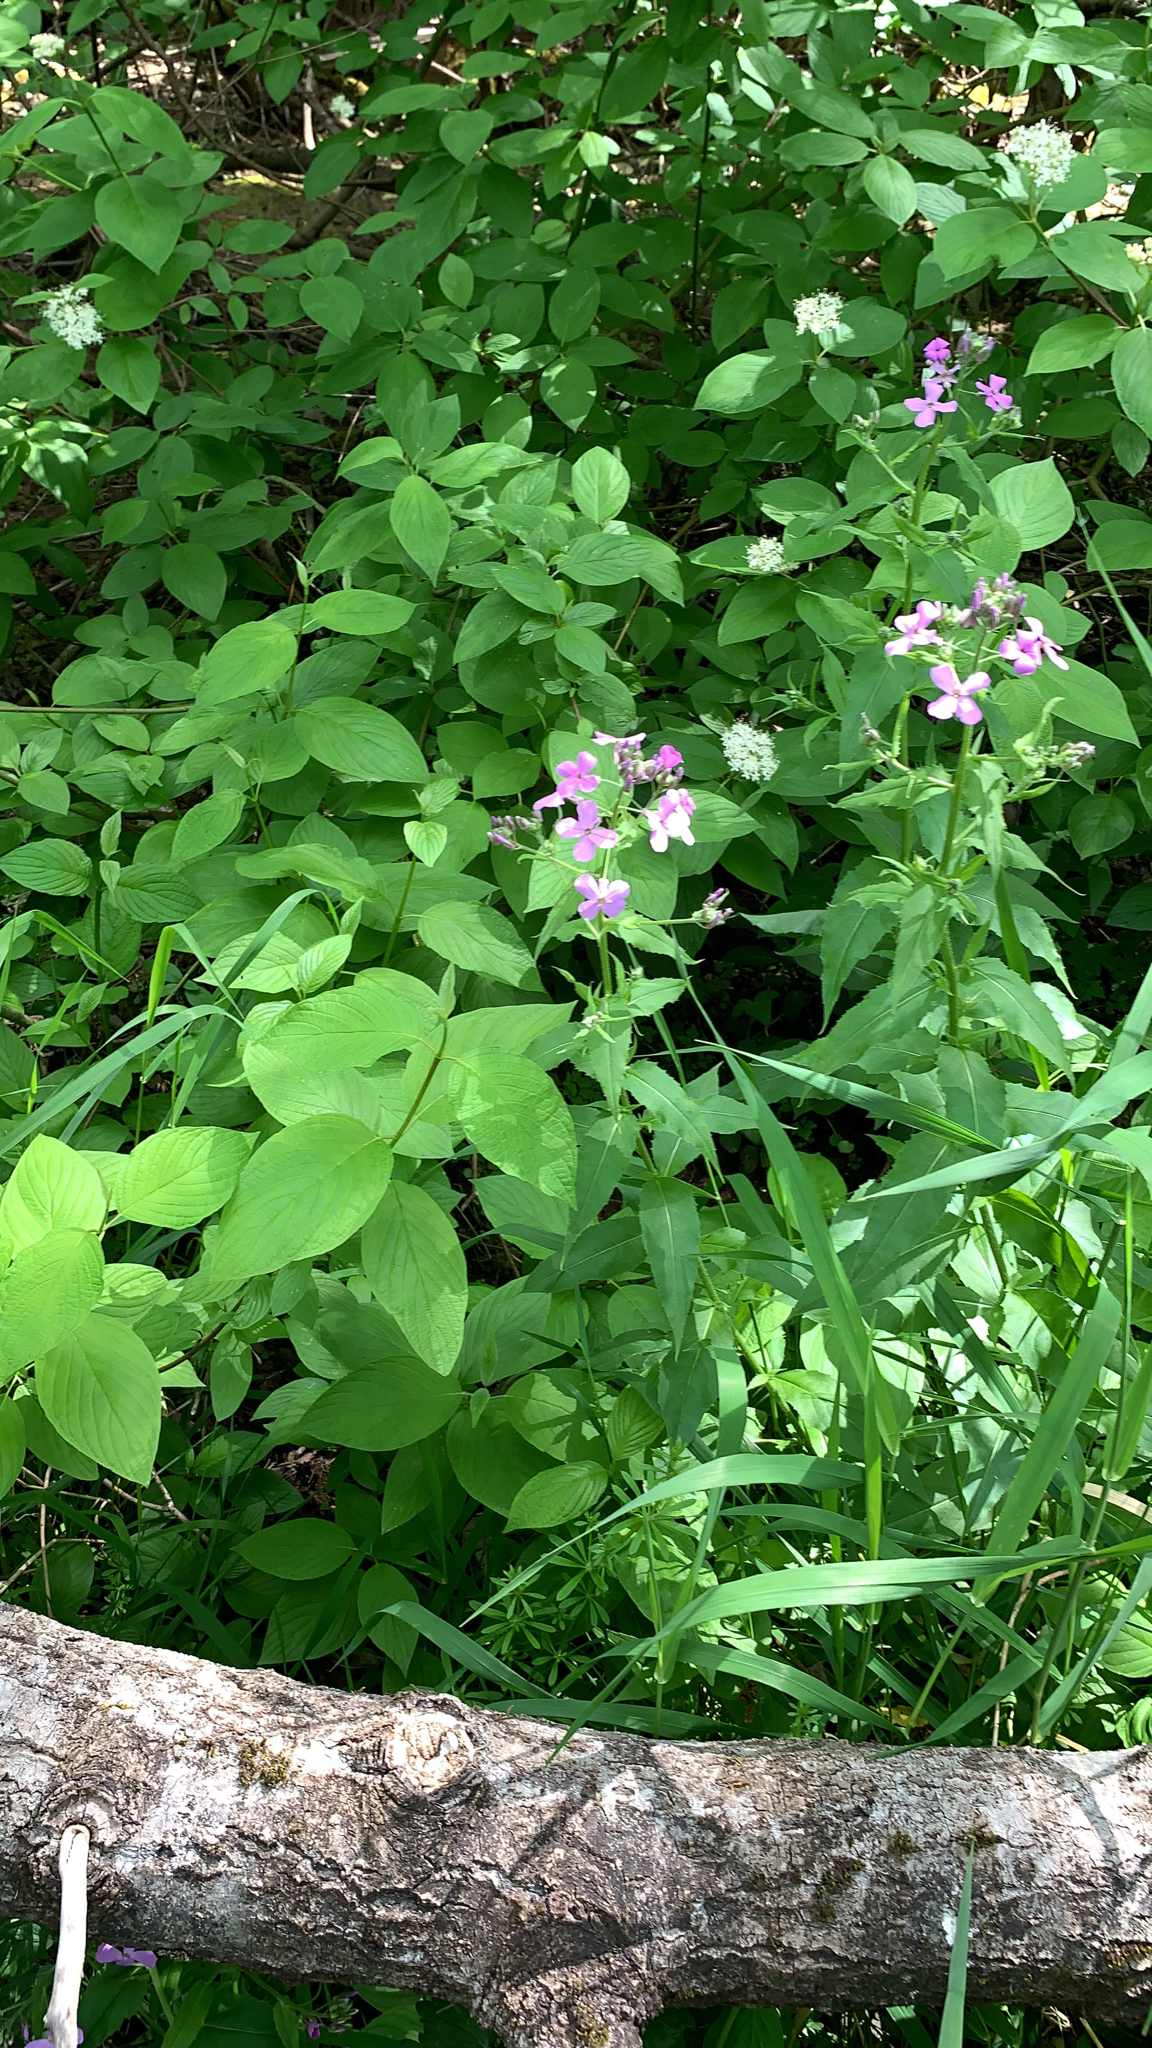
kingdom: Plantae
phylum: Tracheophyta
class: Magnoliopsida
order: Brassicales
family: Brassicaceae
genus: Hesperis
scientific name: Hesperis matronalis
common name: Dame's-violet
